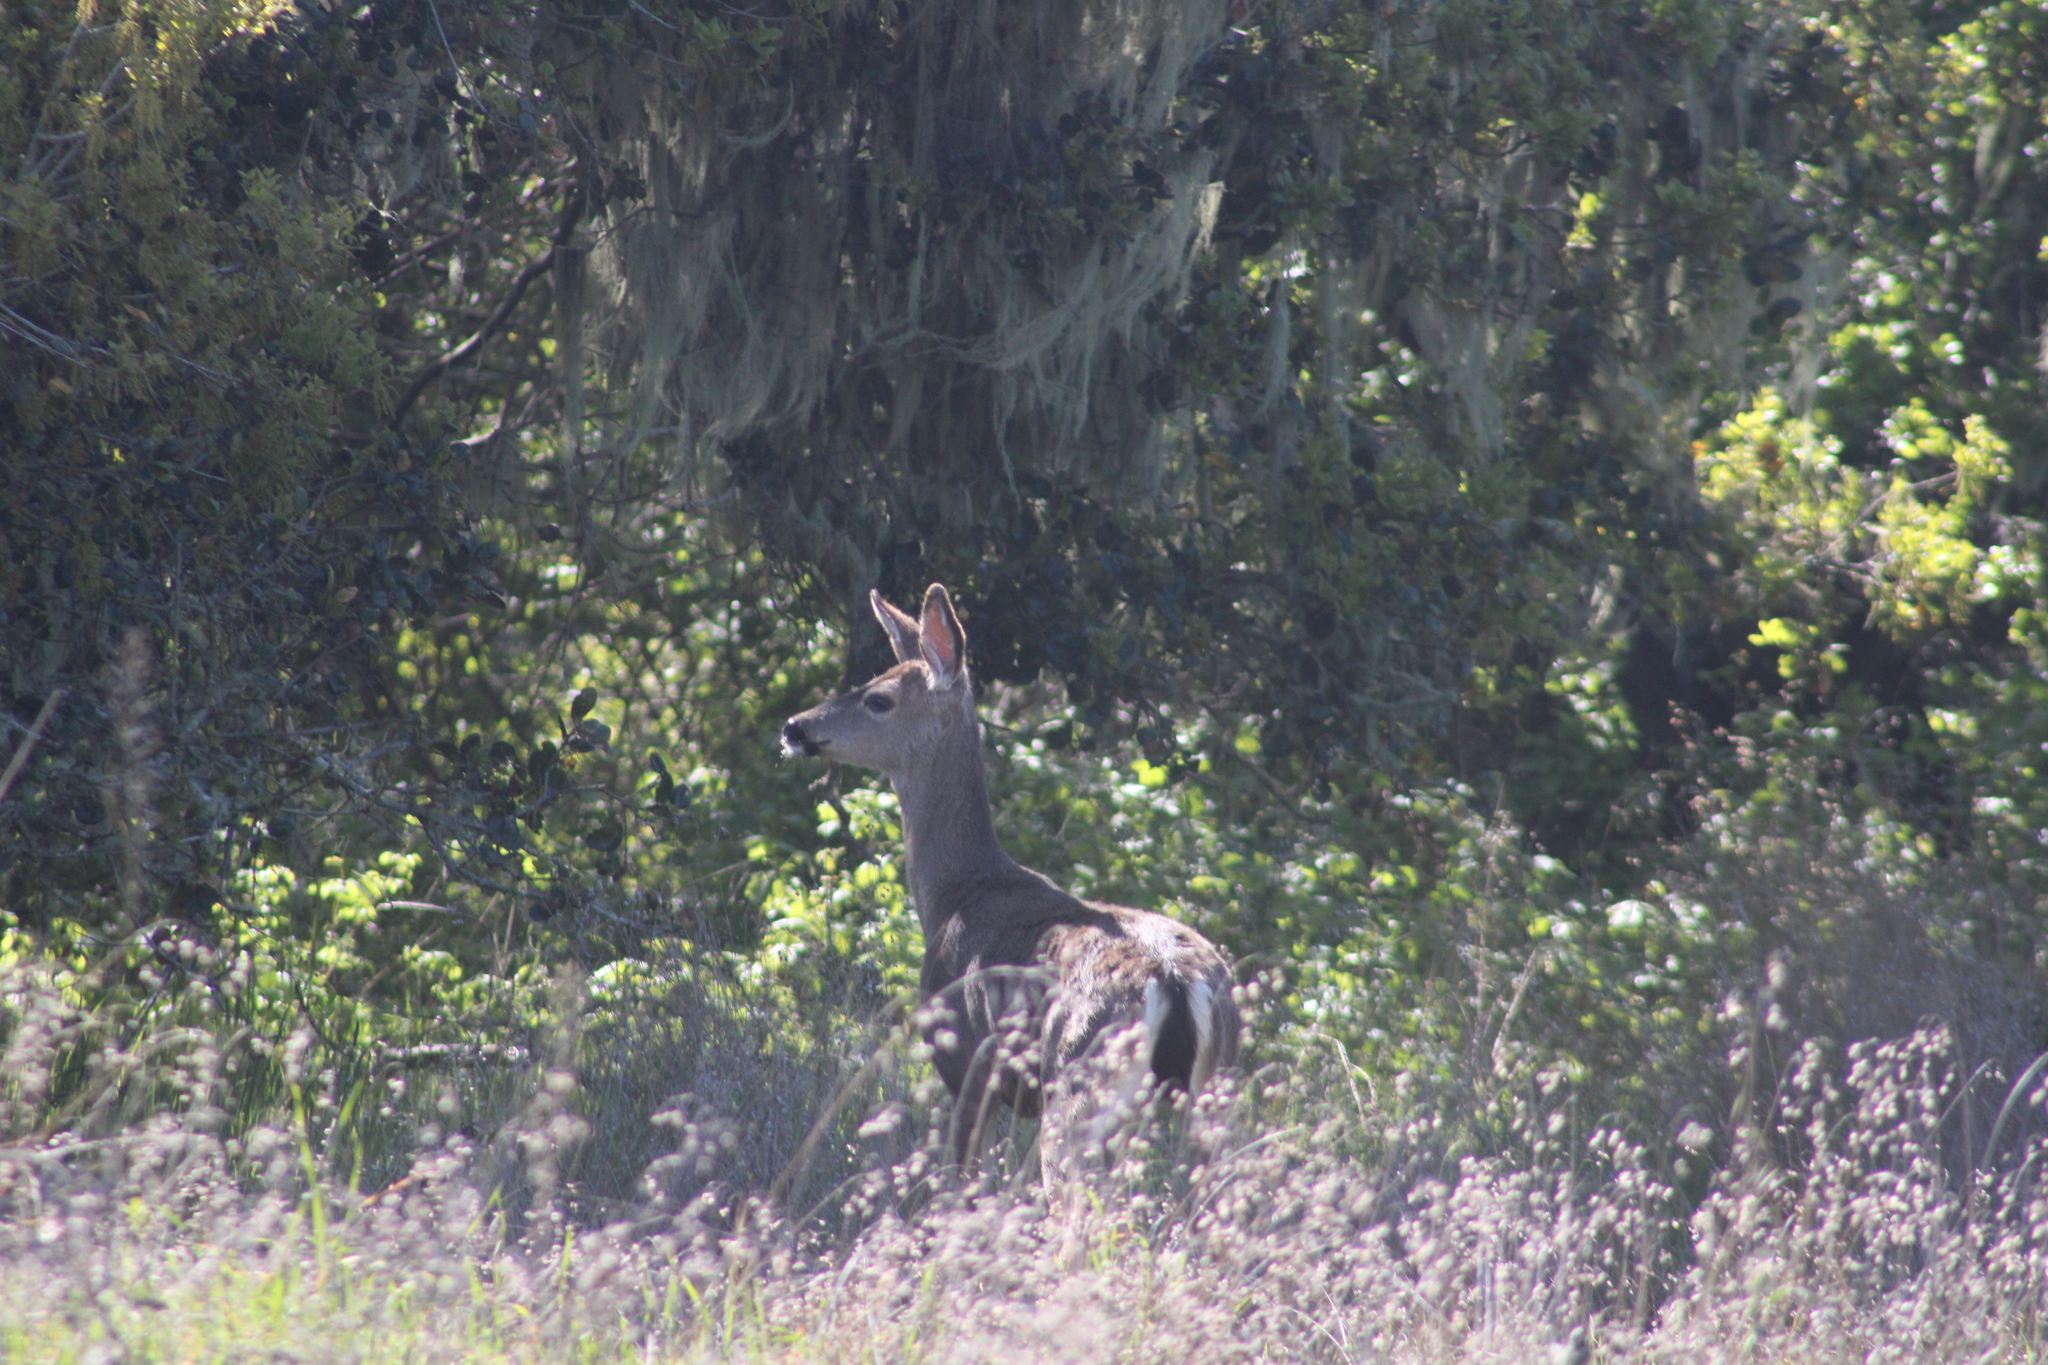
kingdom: Animalia
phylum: Chordata
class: Mammalia
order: Artiodactyla
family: Cervidae
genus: Odocoileus
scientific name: Odocoileus hemionus
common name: Mule deer
